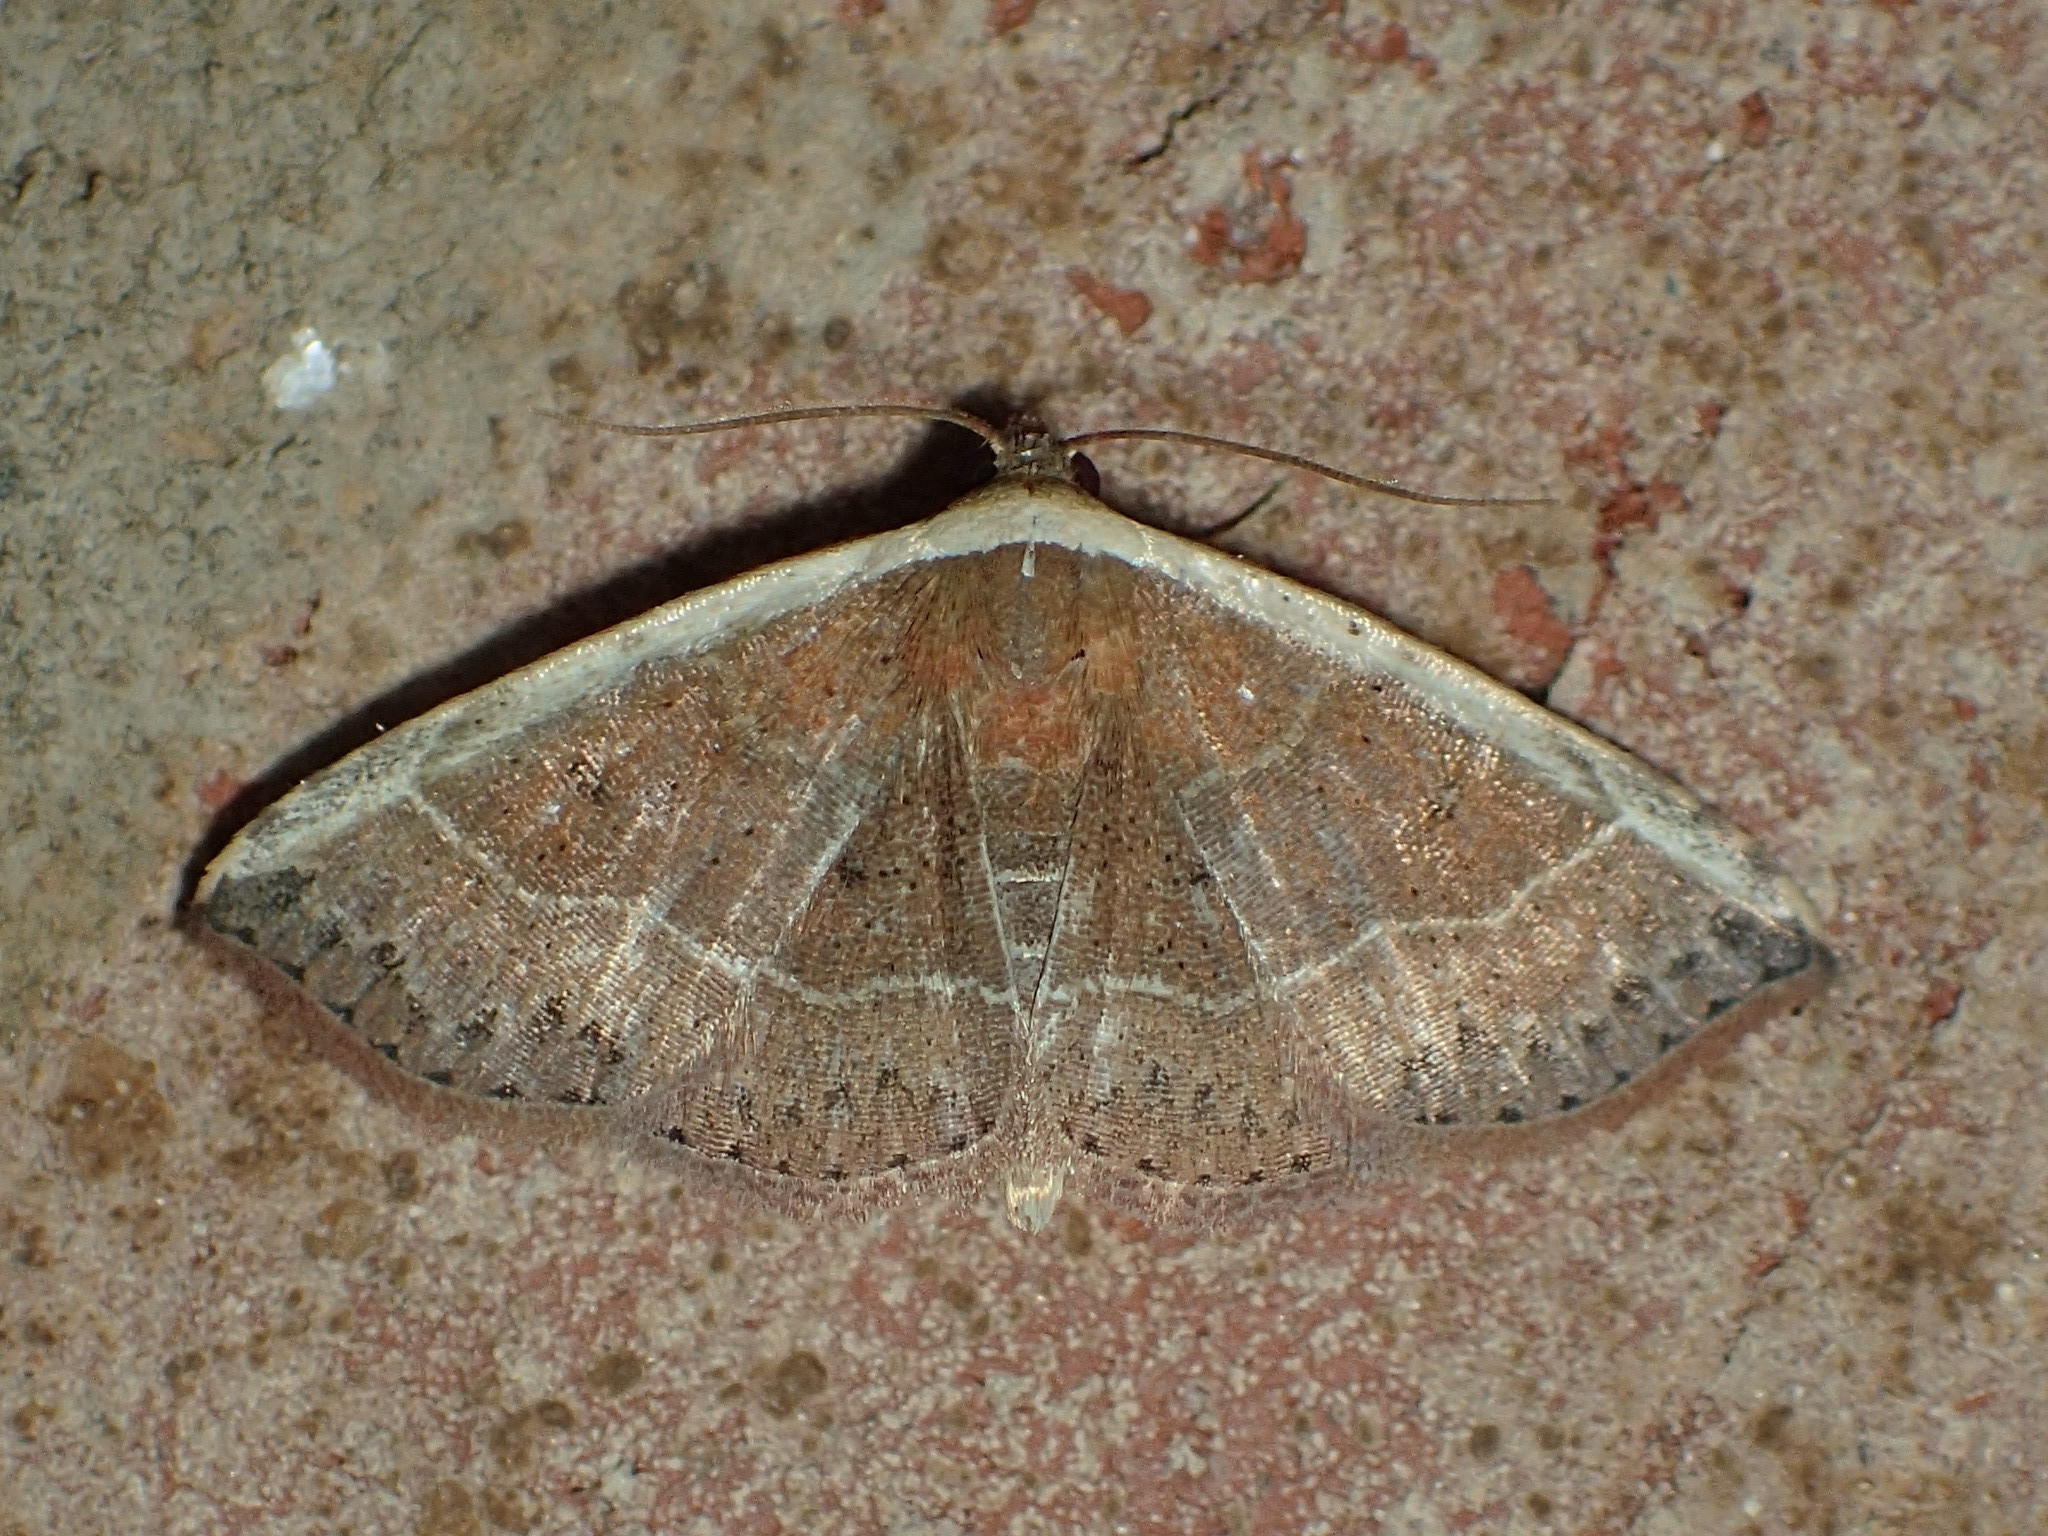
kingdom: Animalia
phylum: Arthropoda
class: Insecta
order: Lepidoptera
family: Noctuidae
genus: Ozarba
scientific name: Ozarba albocostaliata
